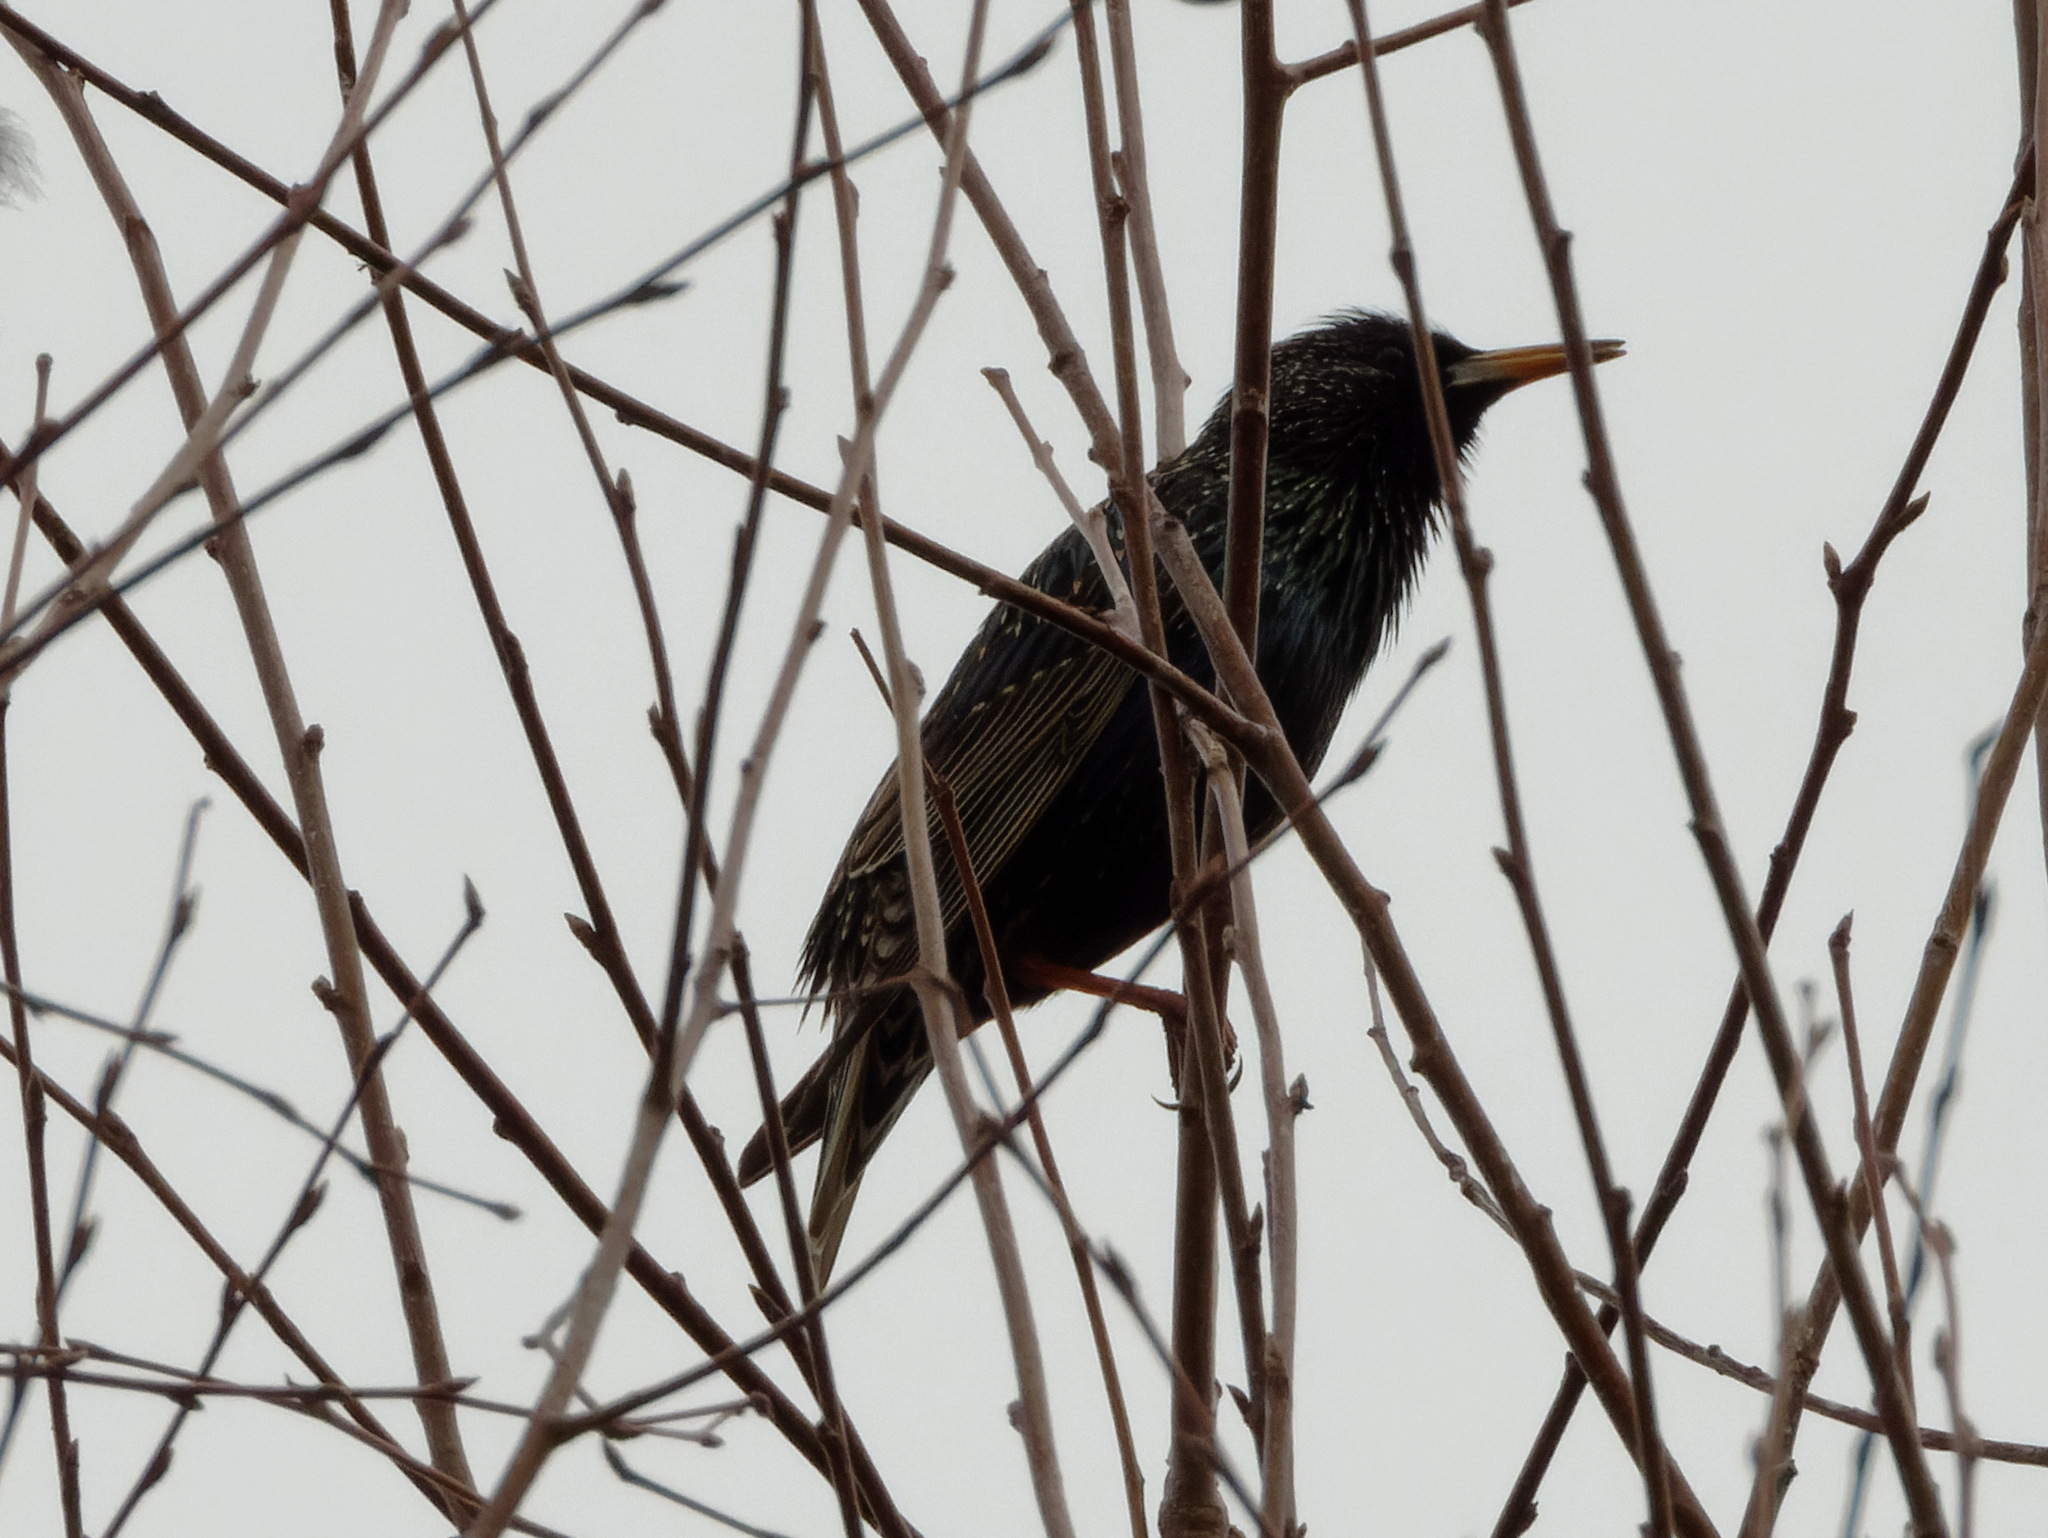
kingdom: Animalia
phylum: Chordata
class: Aves
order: Passeriformes
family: Sturnidae
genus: Sturnus
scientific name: Sturnus vulgaris
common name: Common starling
